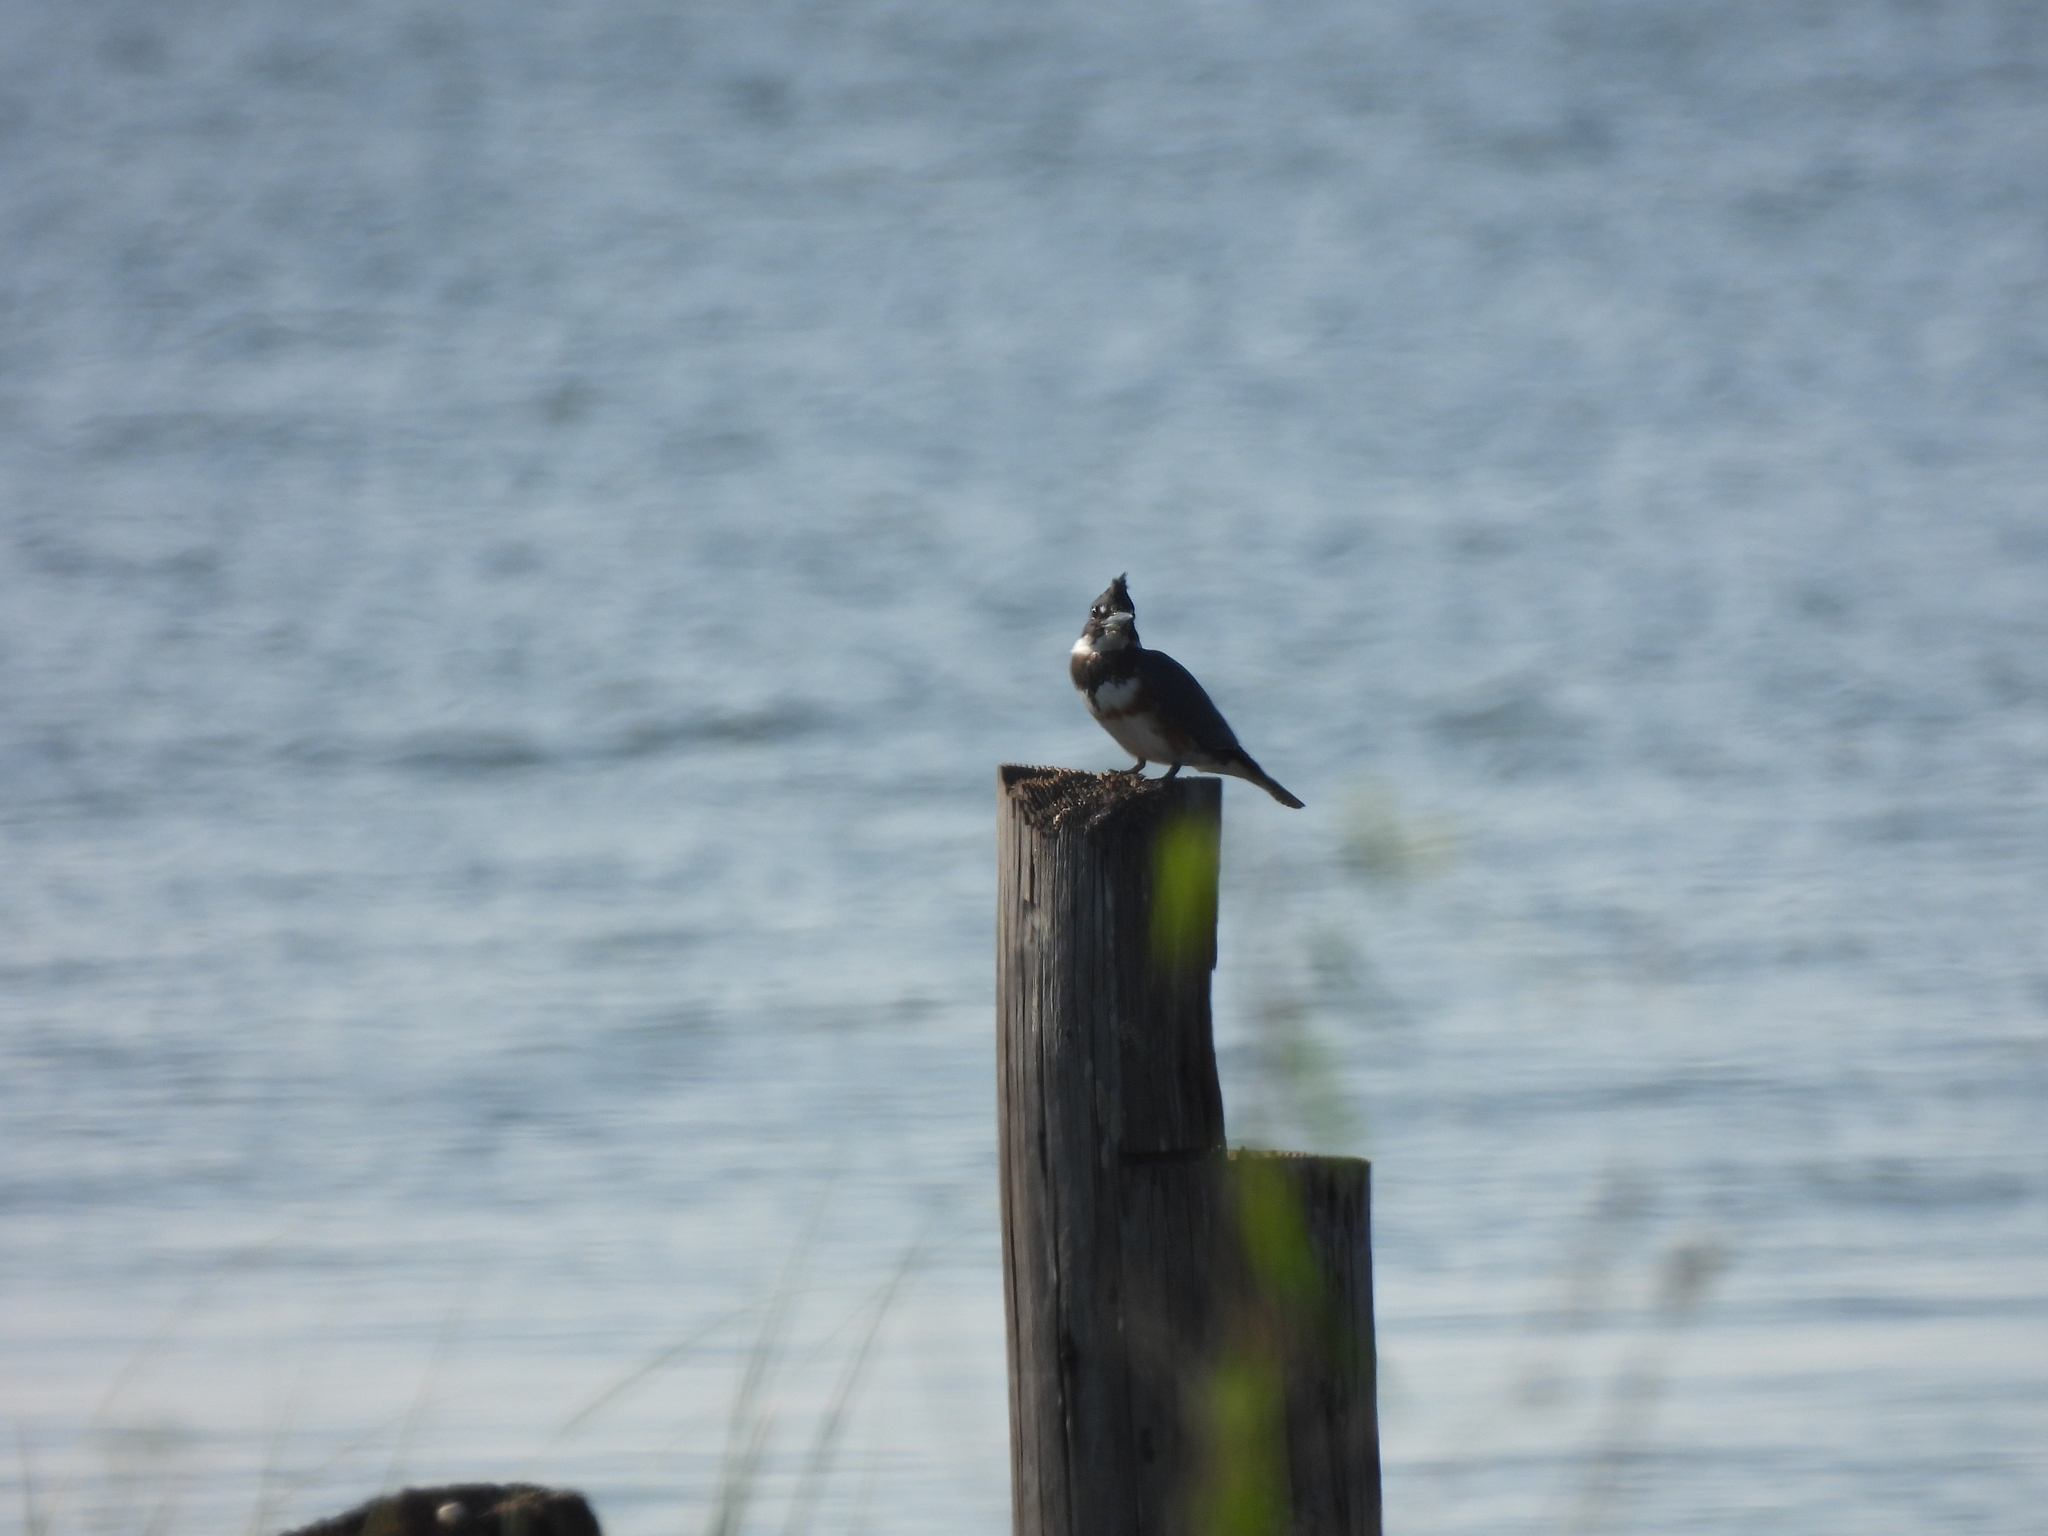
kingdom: Animalia
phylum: Chordata
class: Aves
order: Coraciiformes
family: Alcedinidae
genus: Megaceryle
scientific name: Megaceryle alcyon
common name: Belted kingfisher
